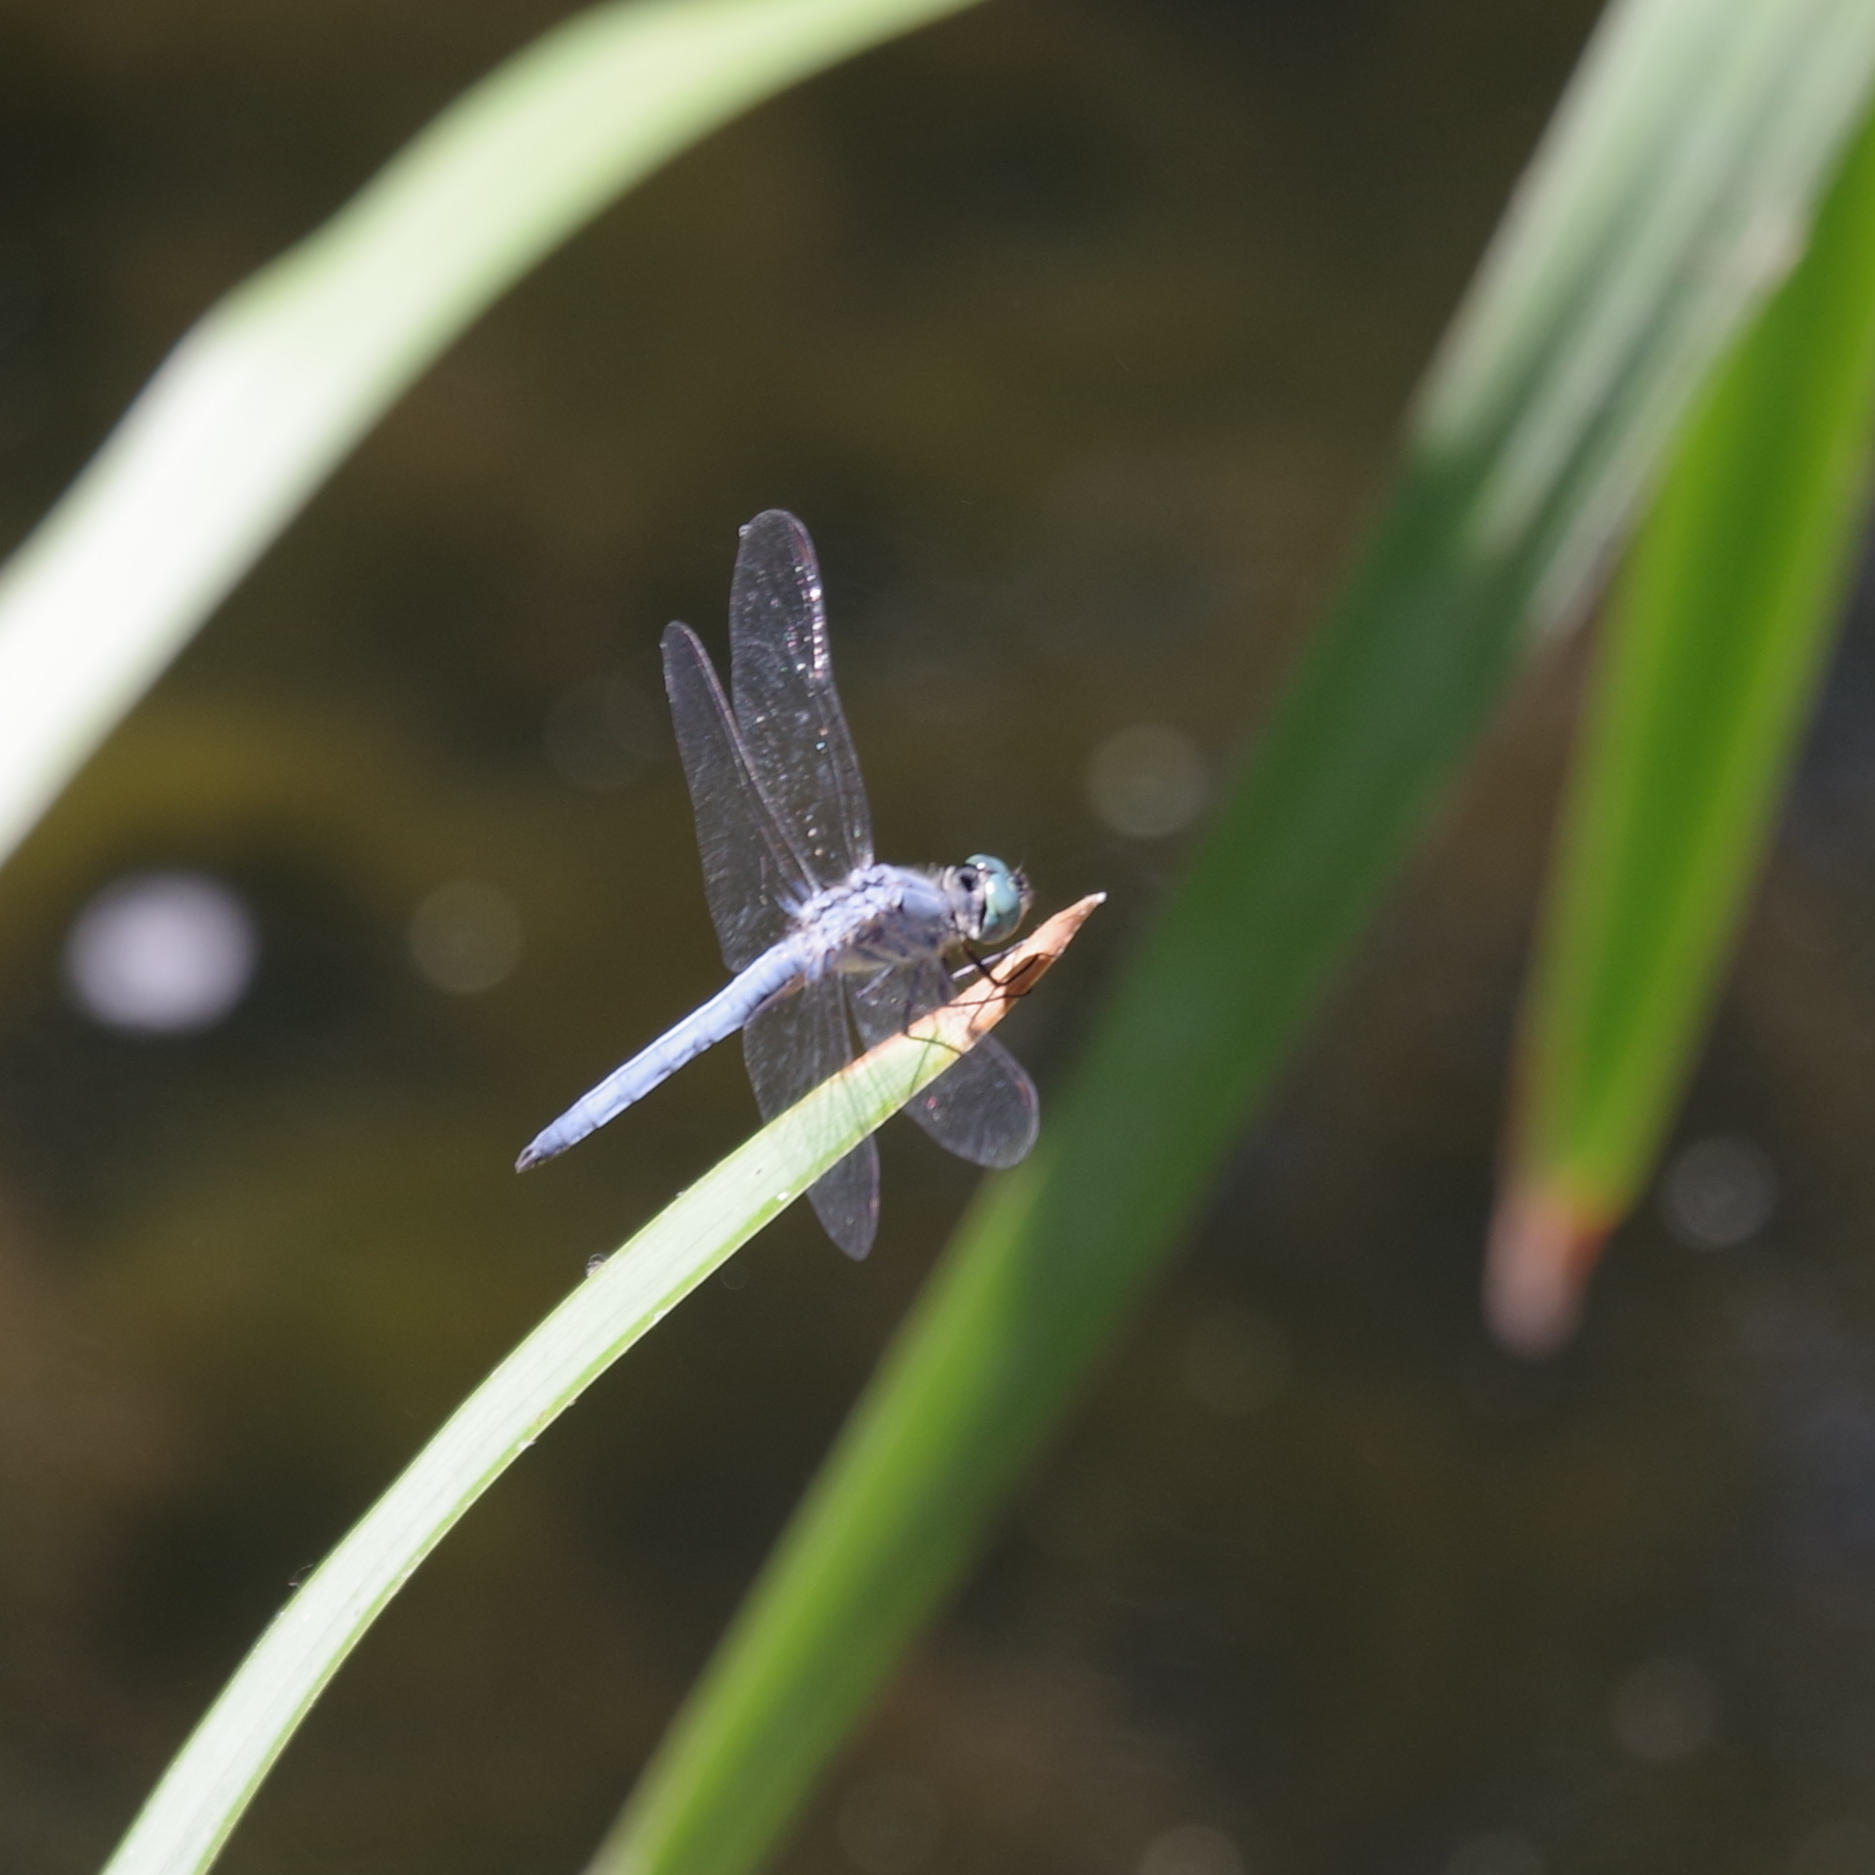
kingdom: Animalia
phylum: Arthropoda
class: Insecta
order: Odonata
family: Libellulidae
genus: Pachydiplax
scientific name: Pachydiplax longipennis
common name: Blue dasher
